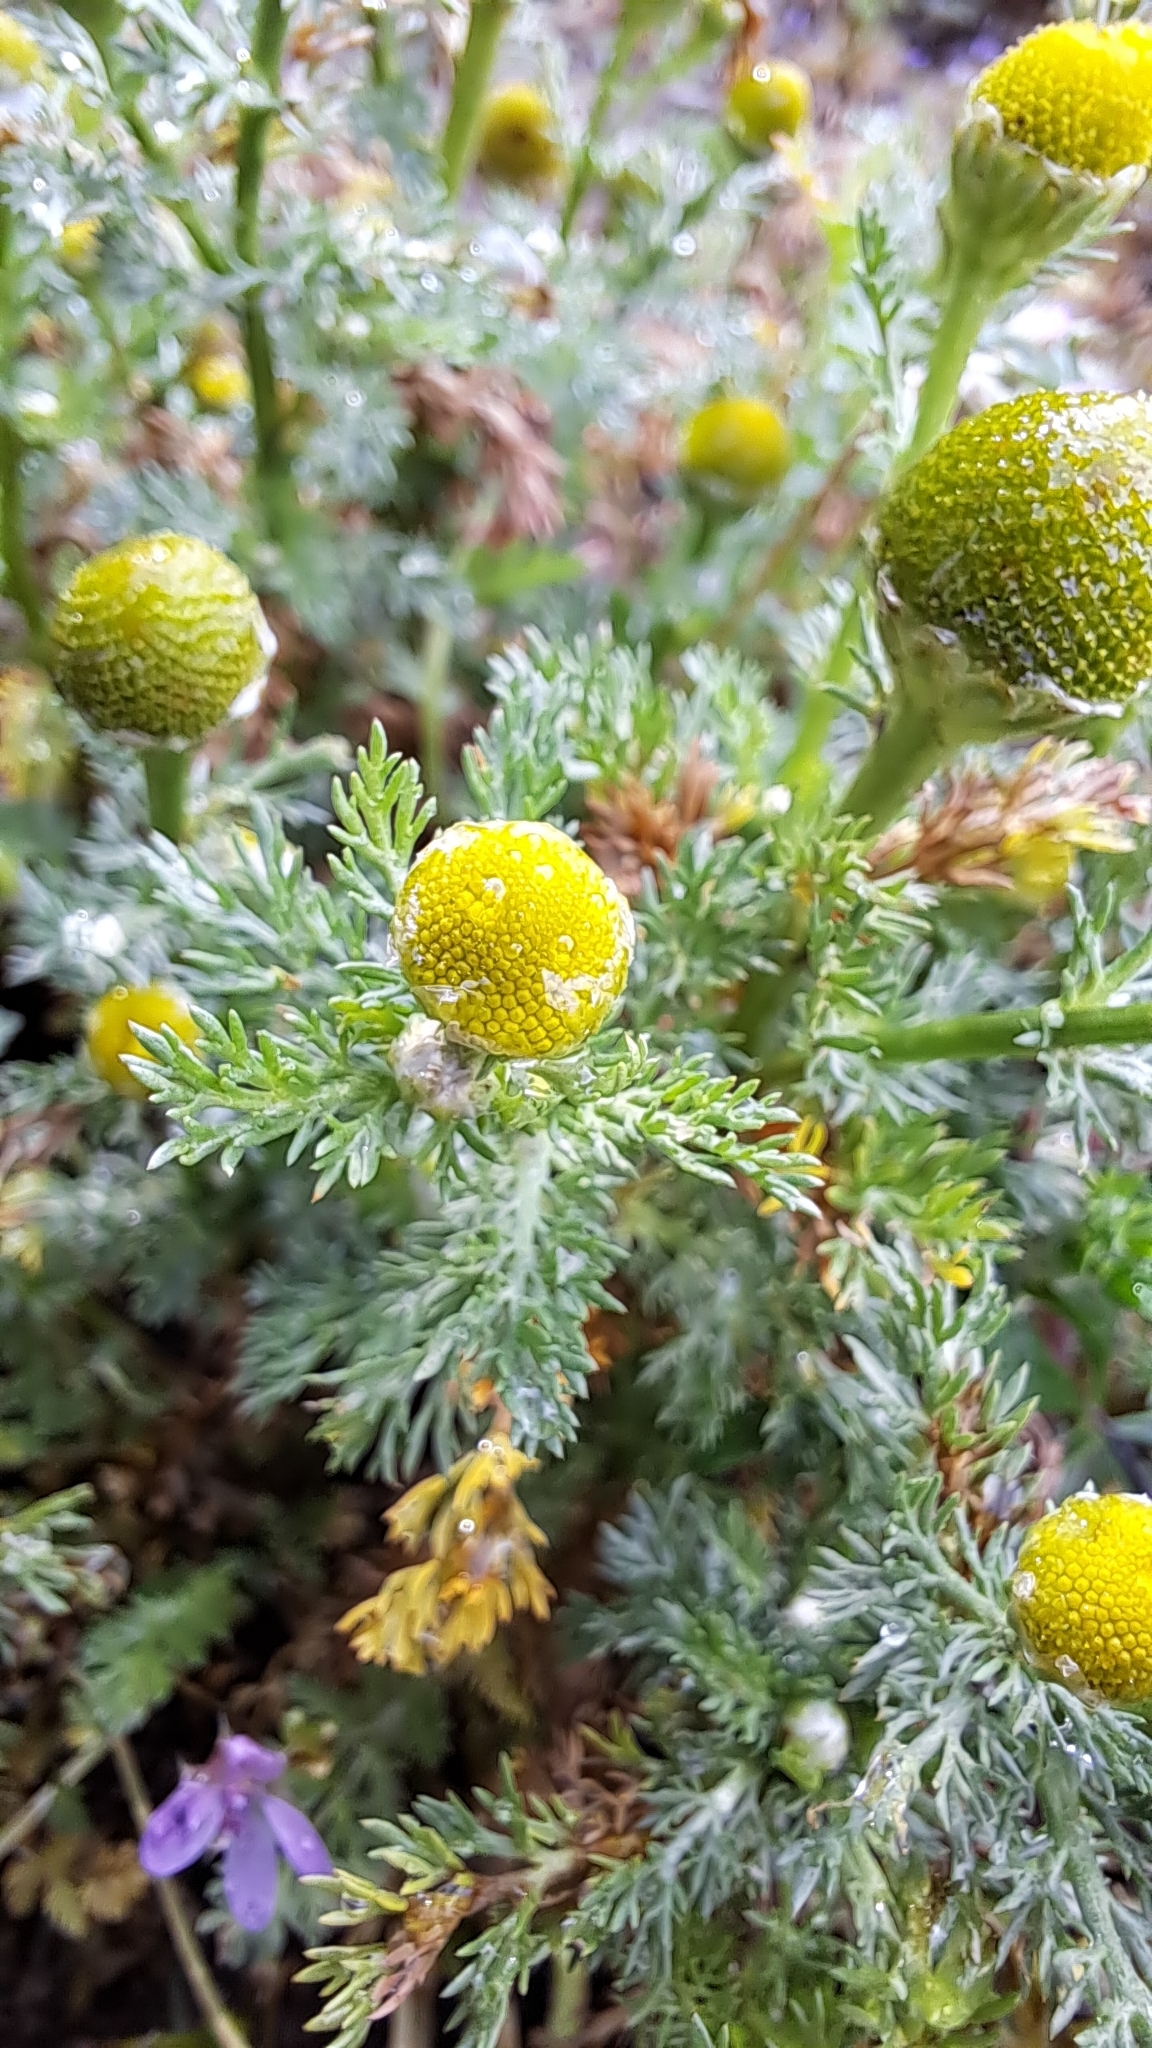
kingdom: Plantae
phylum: Tracheophyta
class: Magnoliopsida
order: Asterales
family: Asteraceae
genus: Matricaria
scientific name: Matricaria discoidea
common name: Disc mayweed
